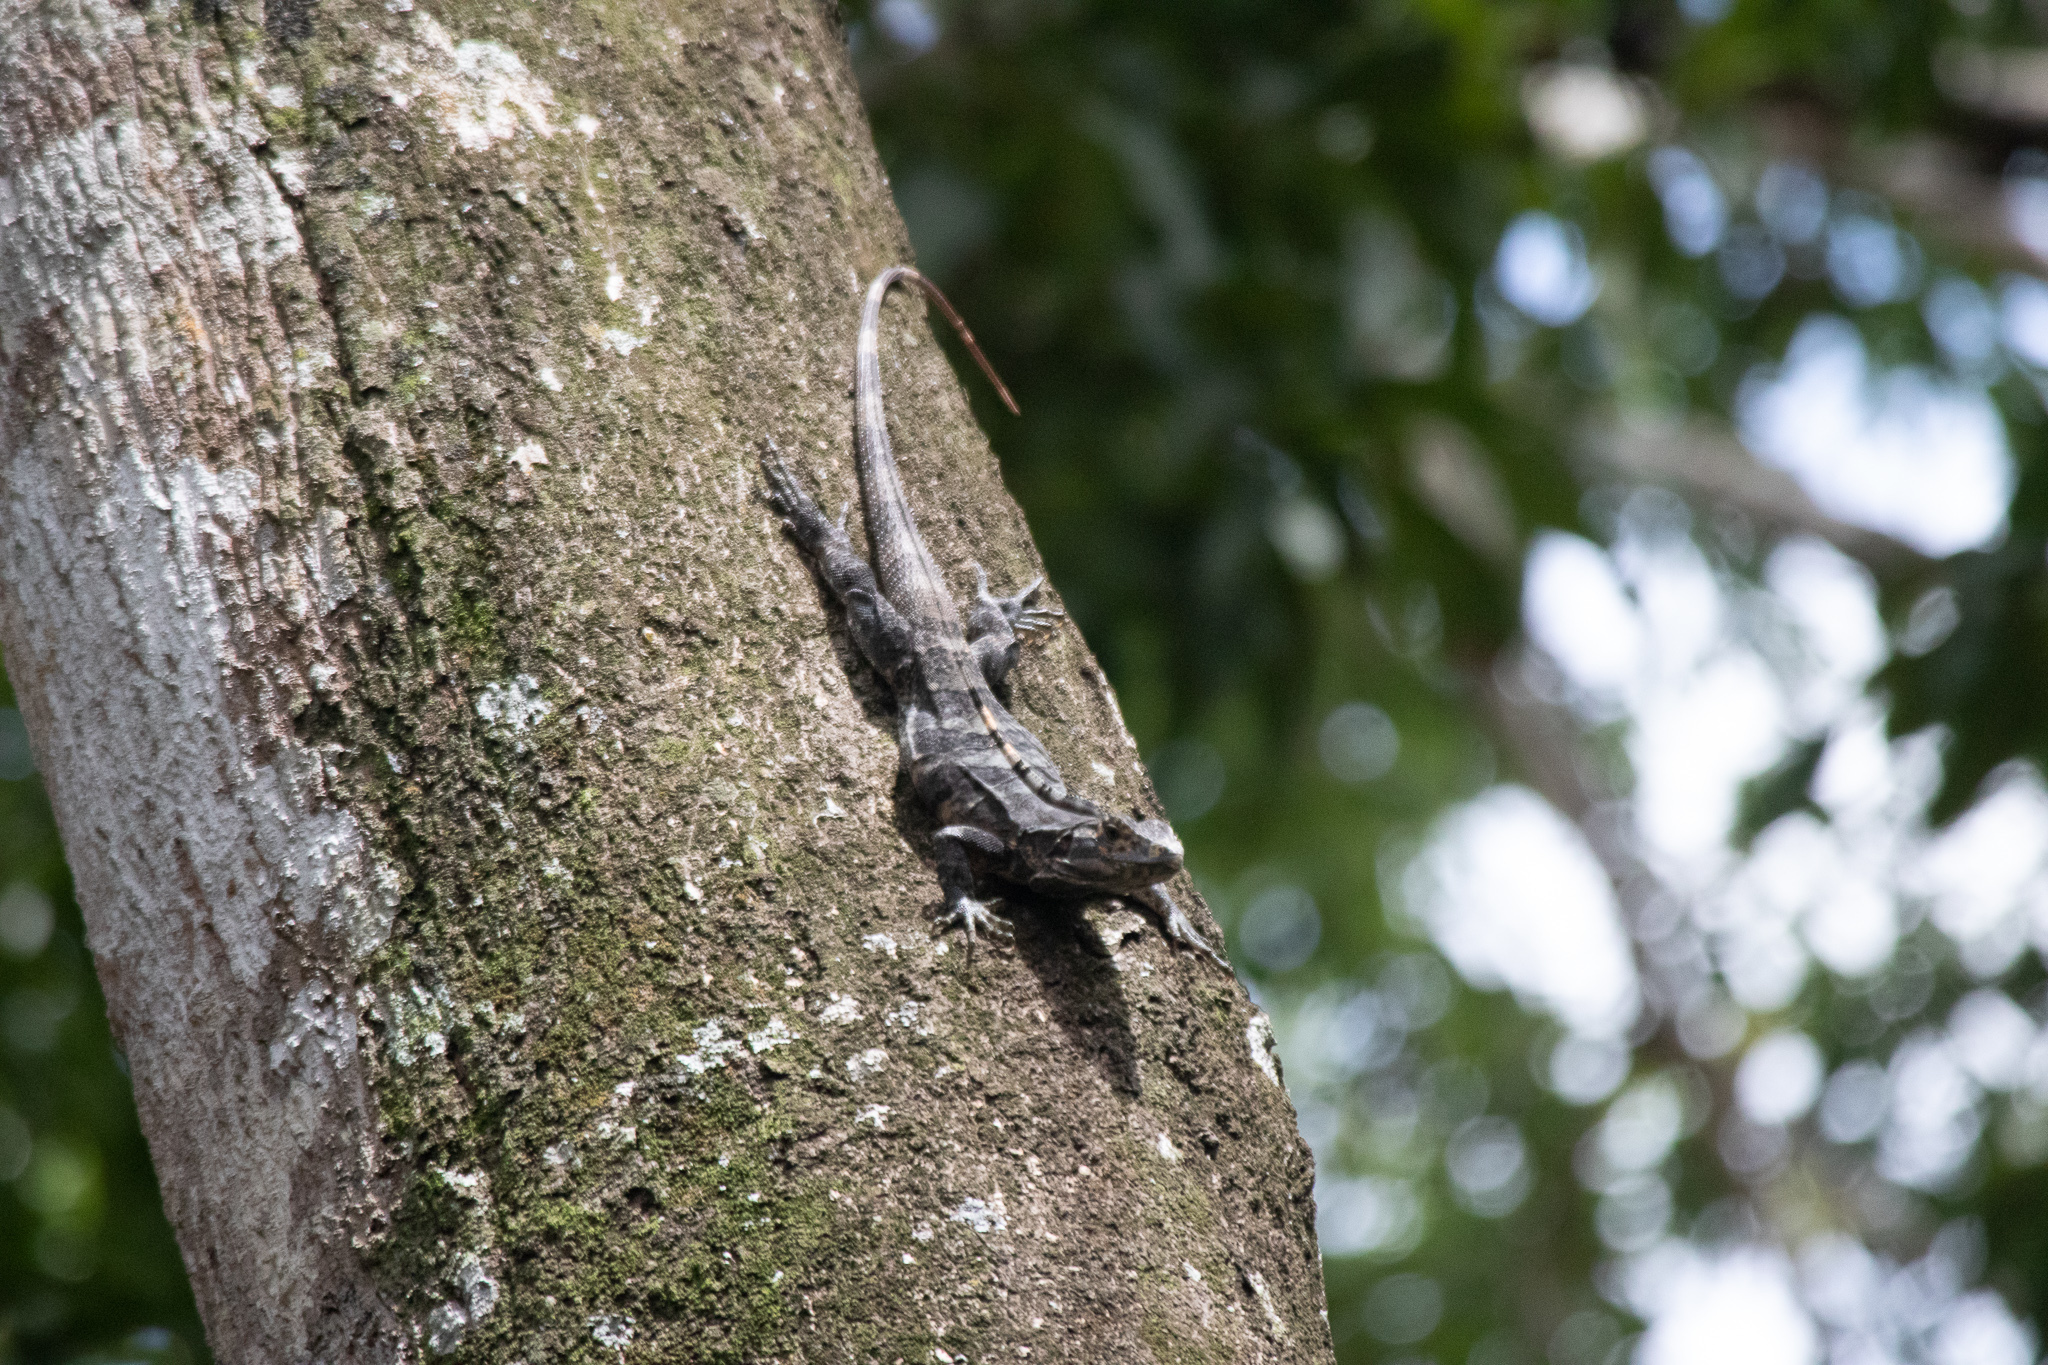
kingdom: Animalia
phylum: Chordata
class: Squamata
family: Iguanidae
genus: Ctenosaura
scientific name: Ctenosaura similis
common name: Black spiny-tailed iguana
